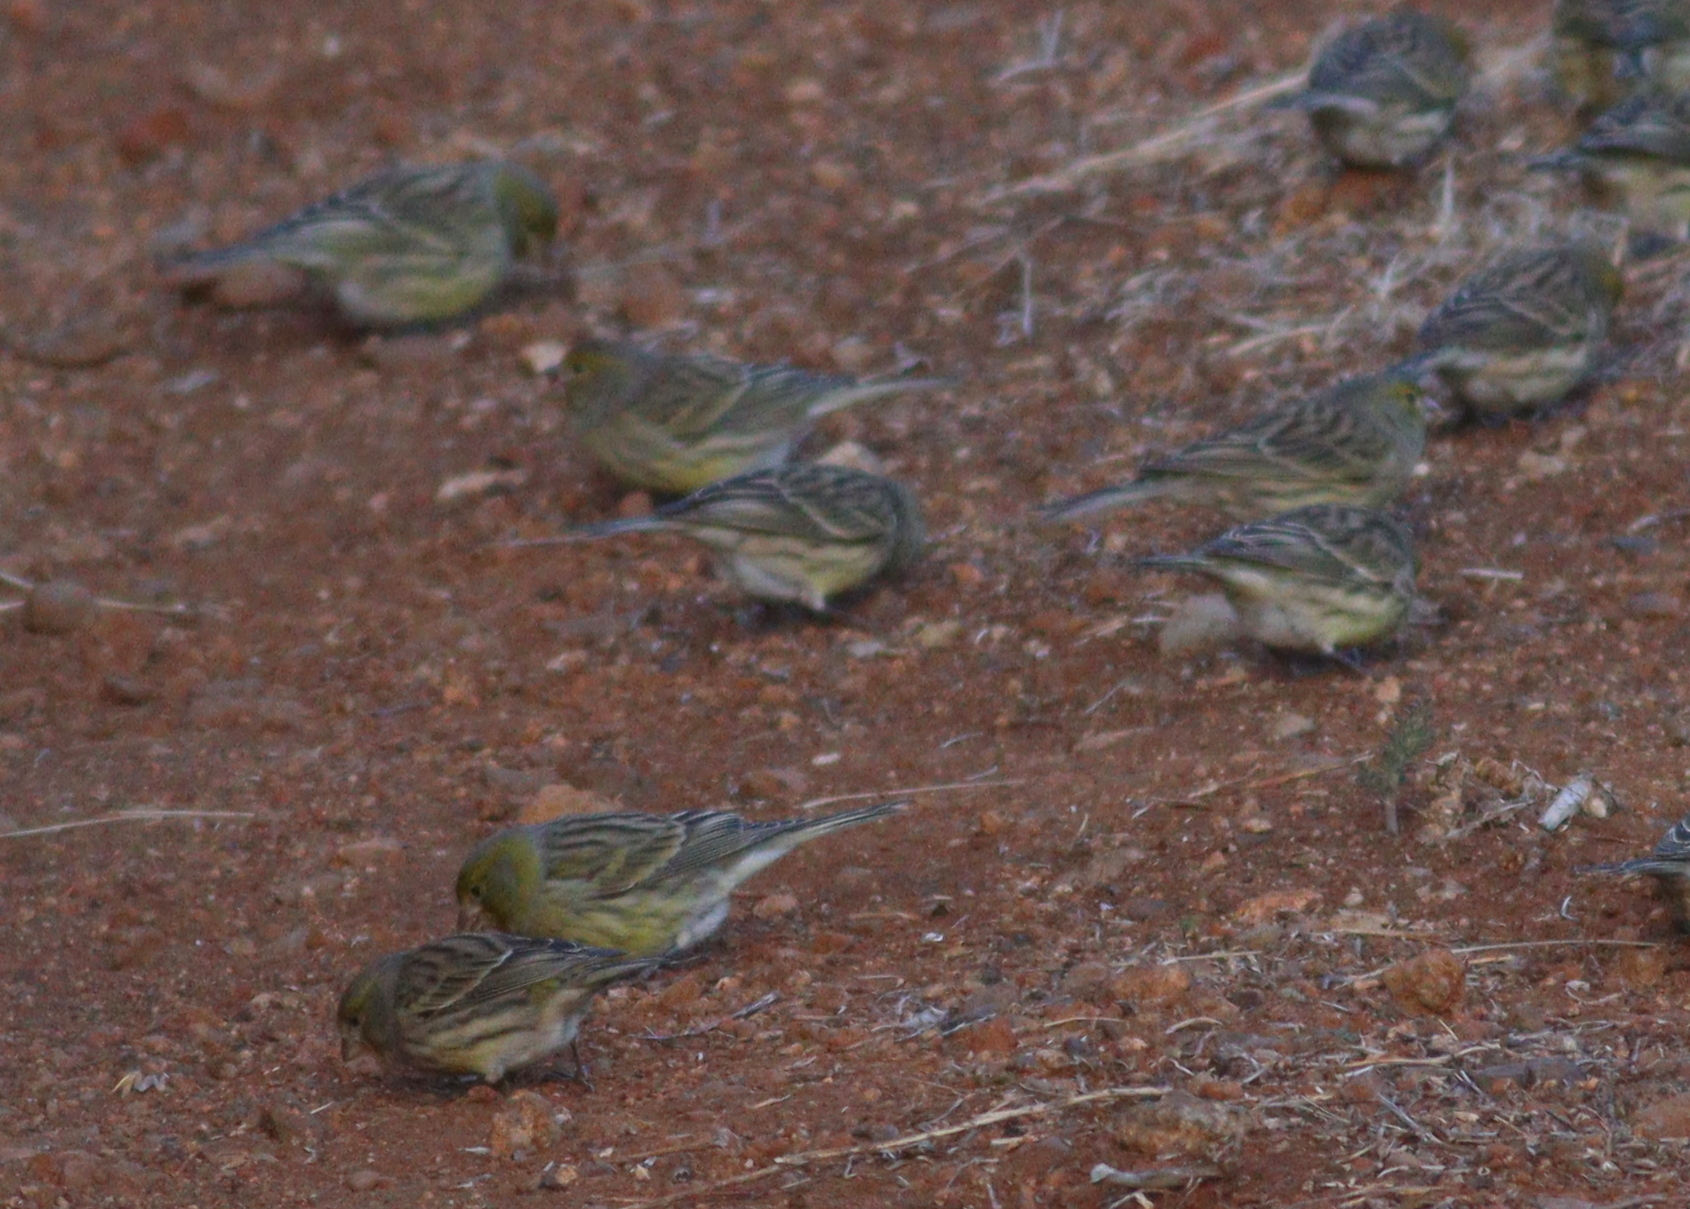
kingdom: Animalia
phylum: Chordata
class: Aves
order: Passeriformes
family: Fringillidae
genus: Serinus
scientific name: Serinus canaria
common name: Atlantic canary
